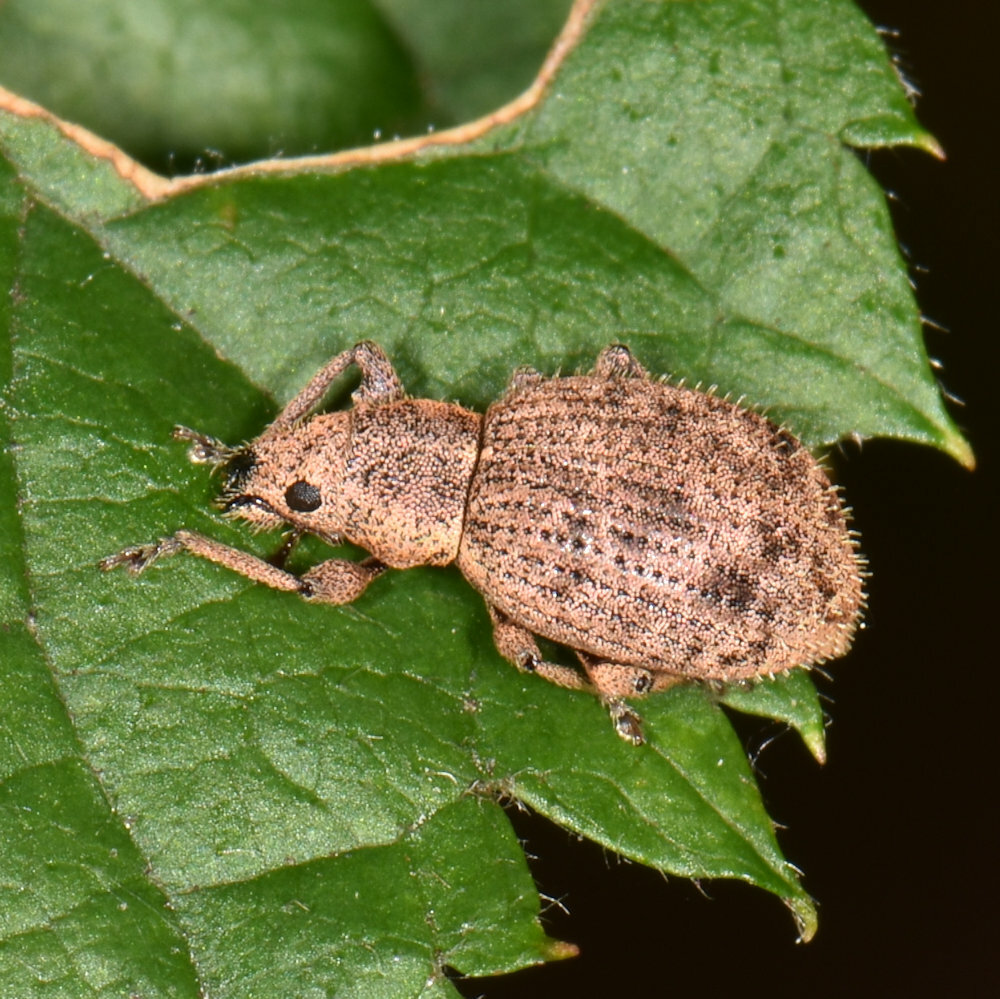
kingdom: Animalia
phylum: Arthropoda
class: Insecta
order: Coleoptera
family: Curculionidae
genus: Sciaphilus
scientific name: Sciaphilus asperatus
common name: Weevil
